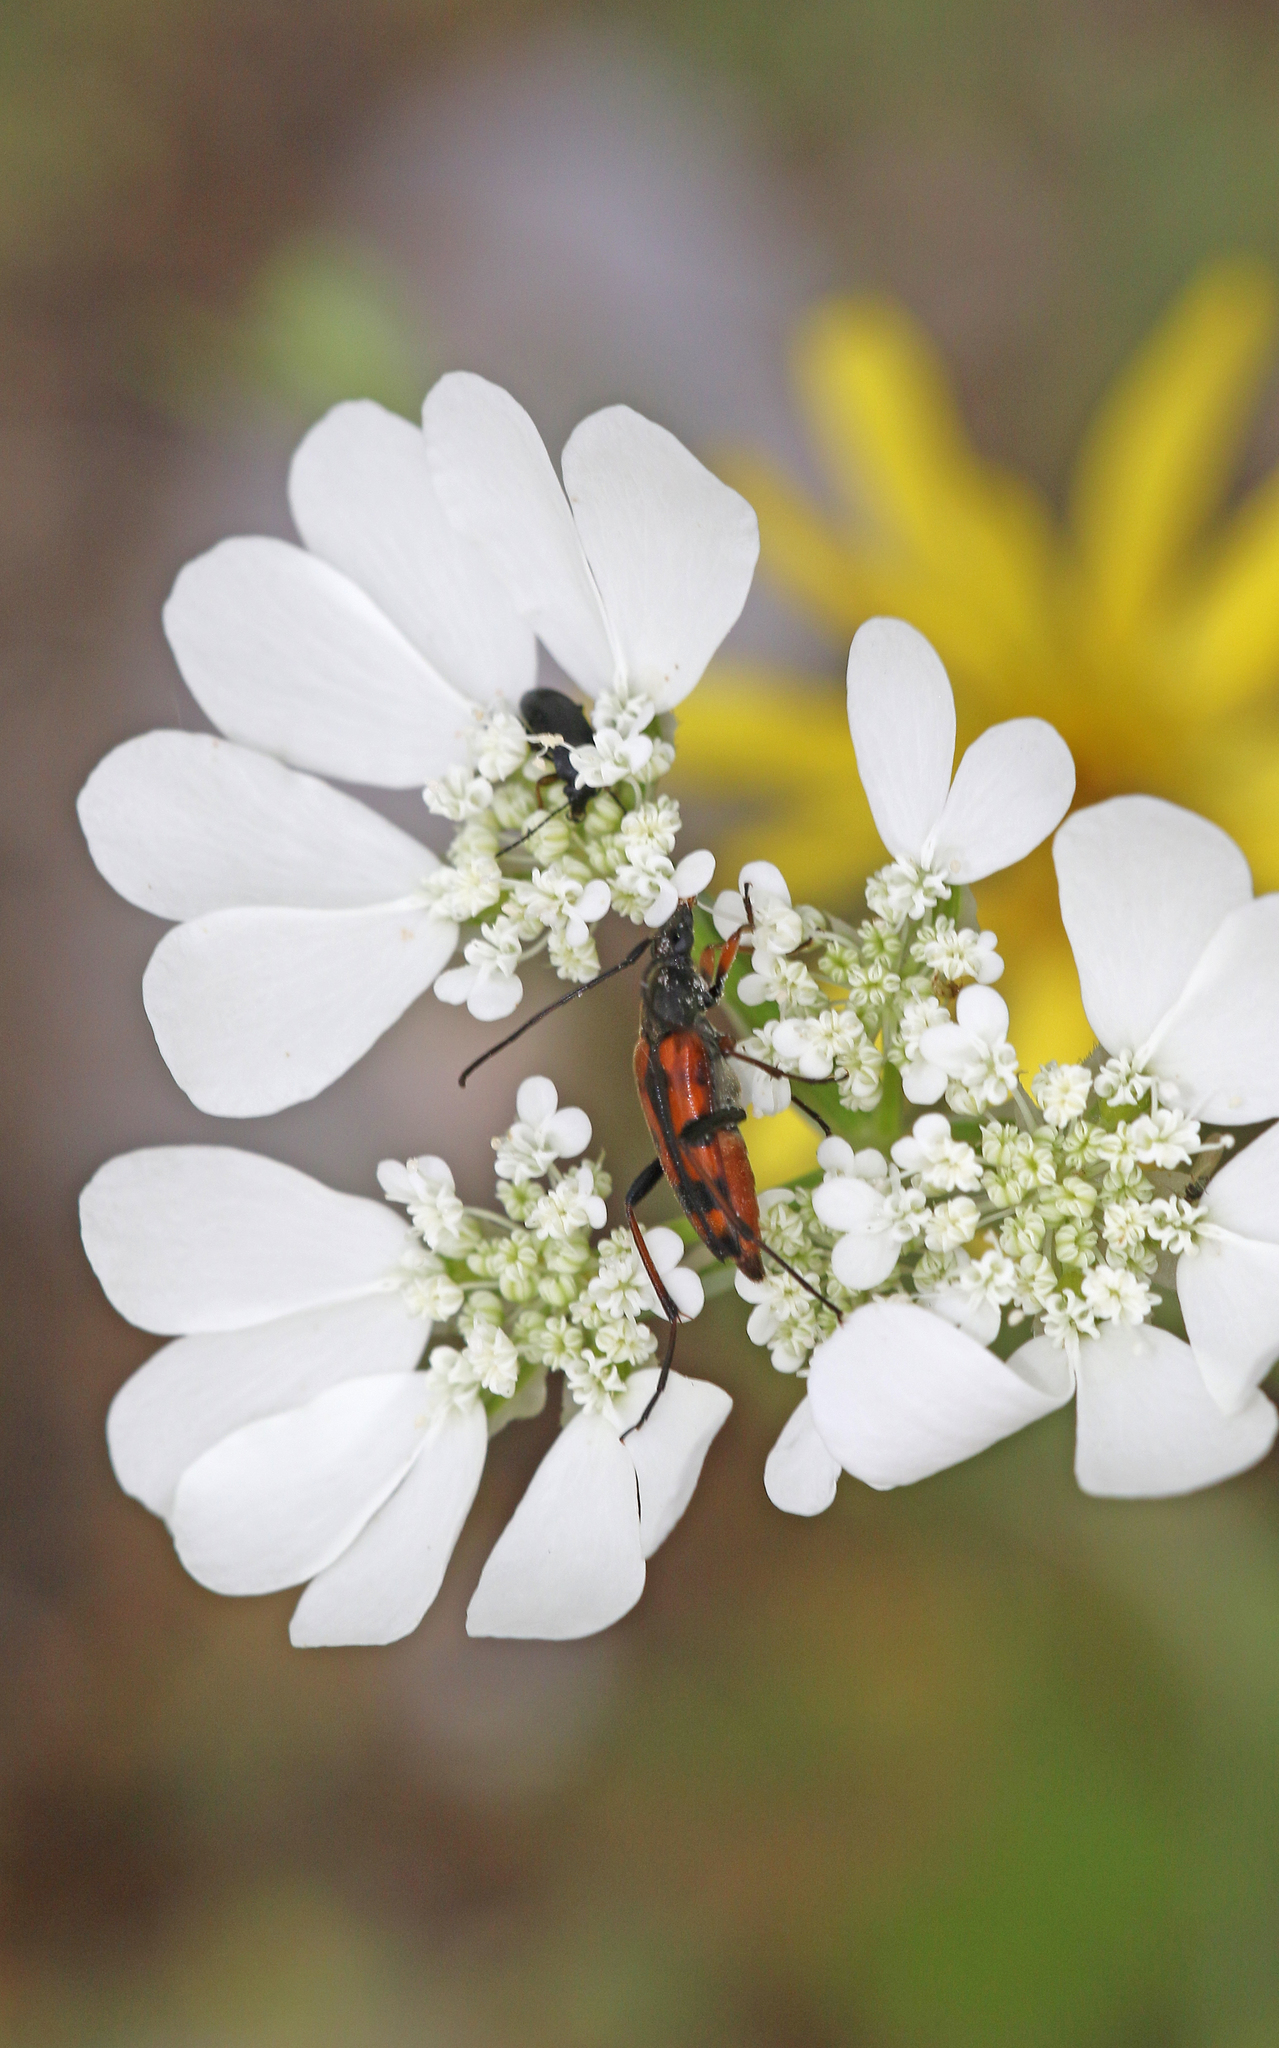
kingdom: Animalia
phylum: Arthropoda
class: Insecta
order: Coleoptera
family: Cerambycidae
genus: Stenurella
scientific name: Stenurella septempunctata
